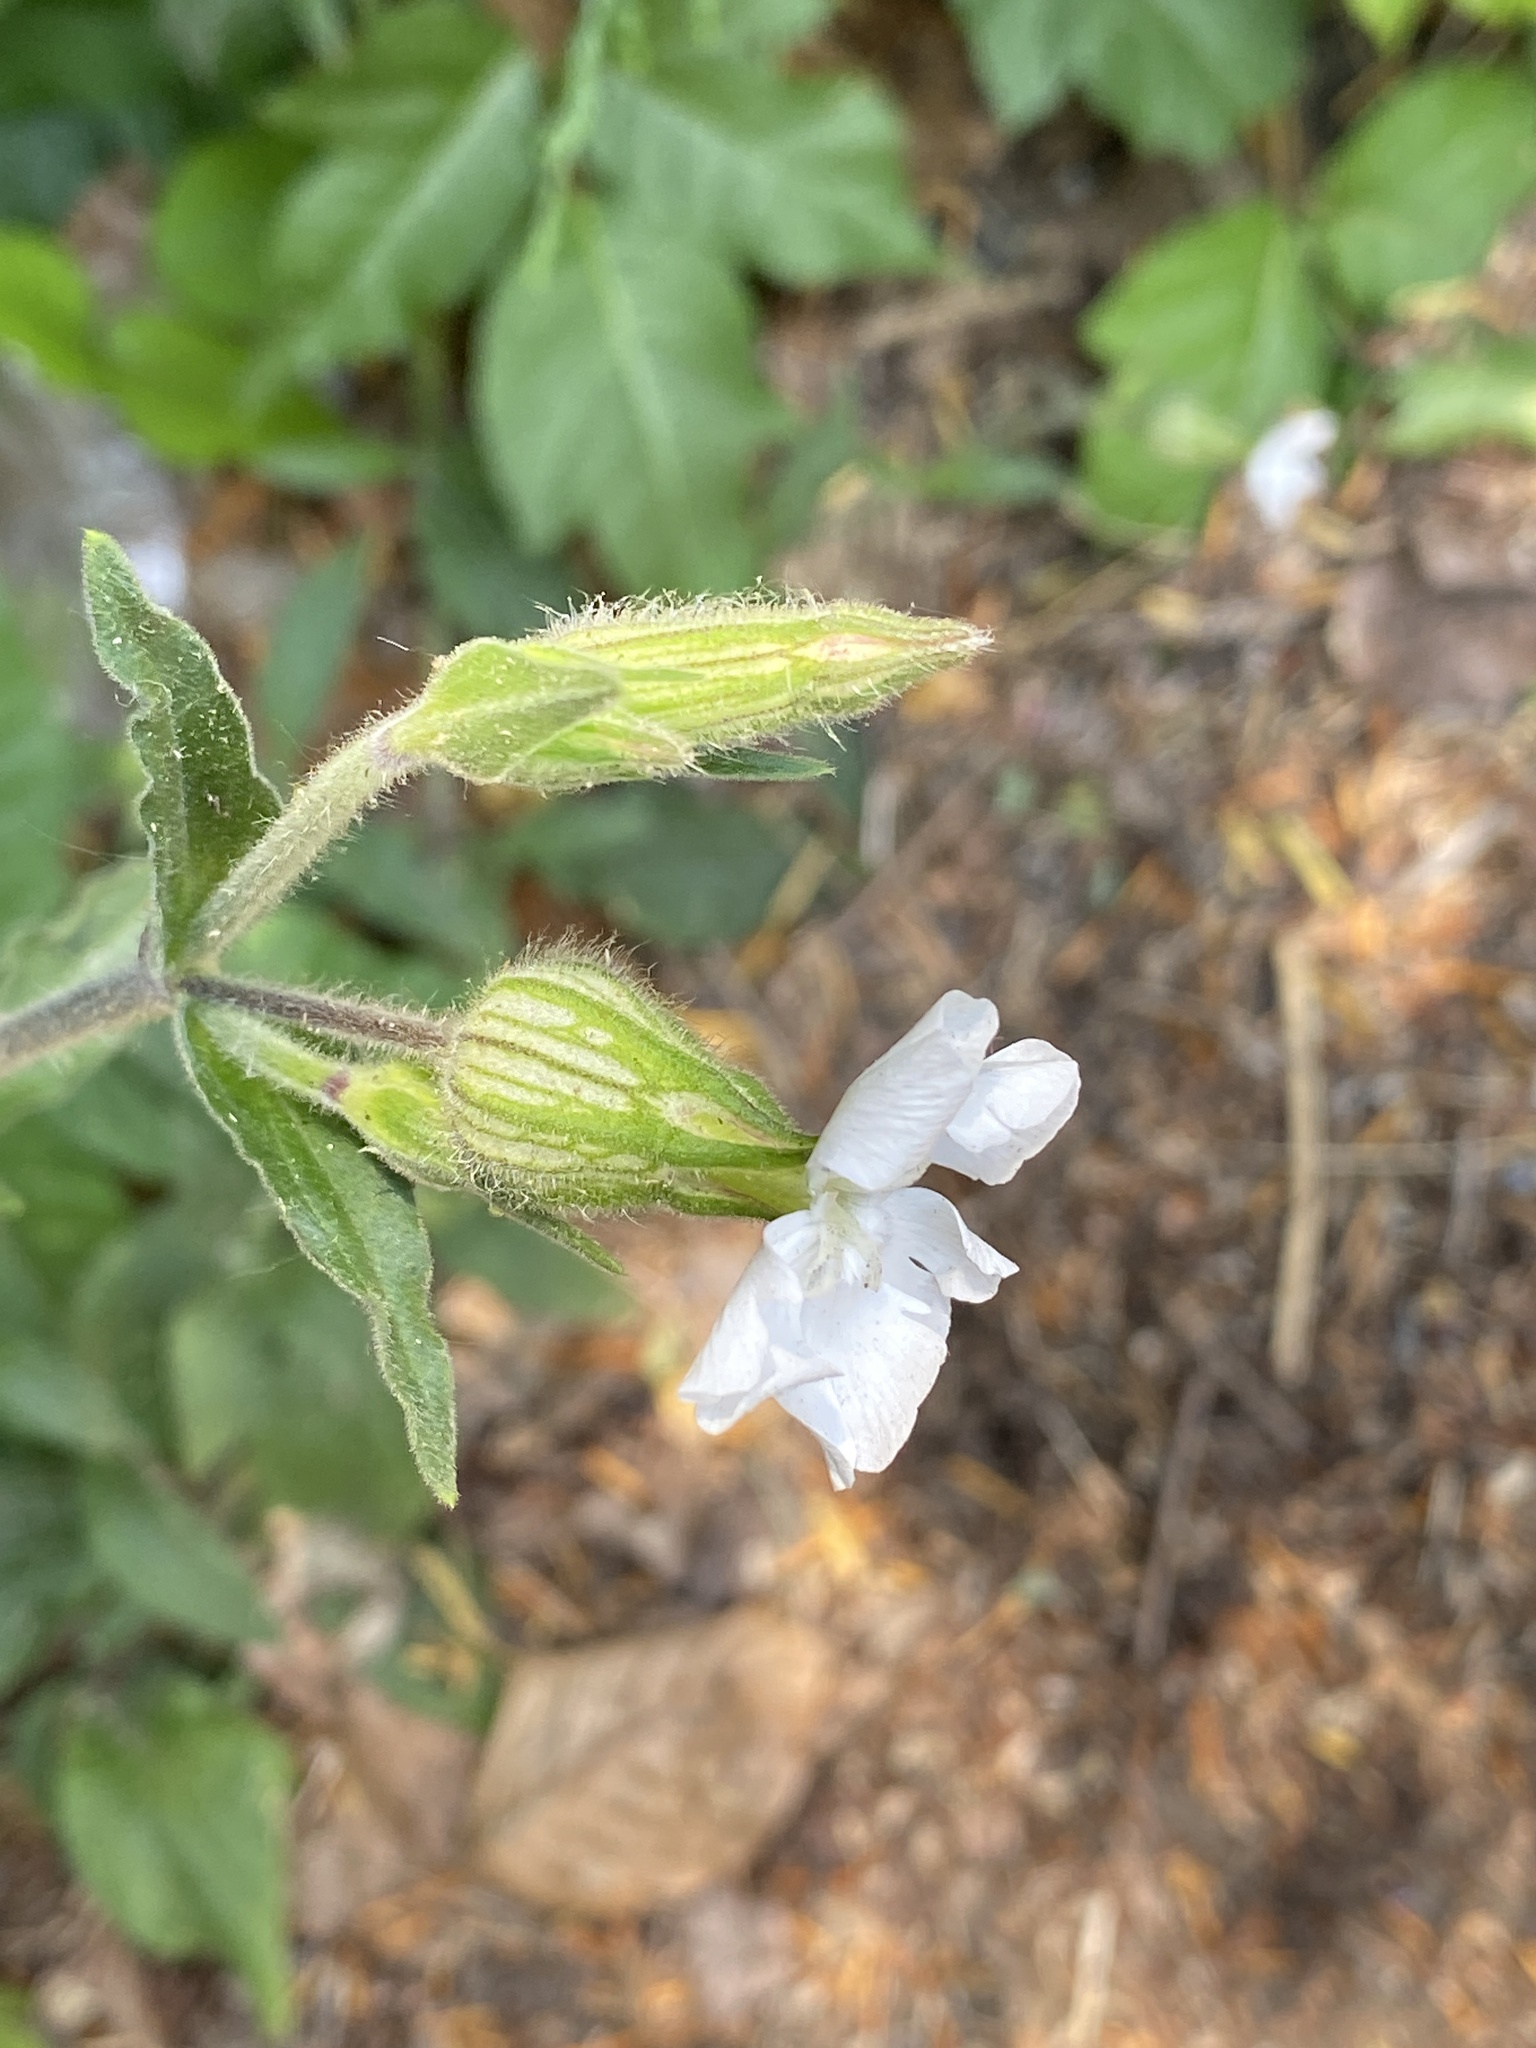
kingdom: Plantae
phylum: Tracheophyta
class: Magnoliopsida
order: Caryophyllales
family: Caryophyllaceae
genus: Silene
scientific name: Silene latifolia
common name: White campion
